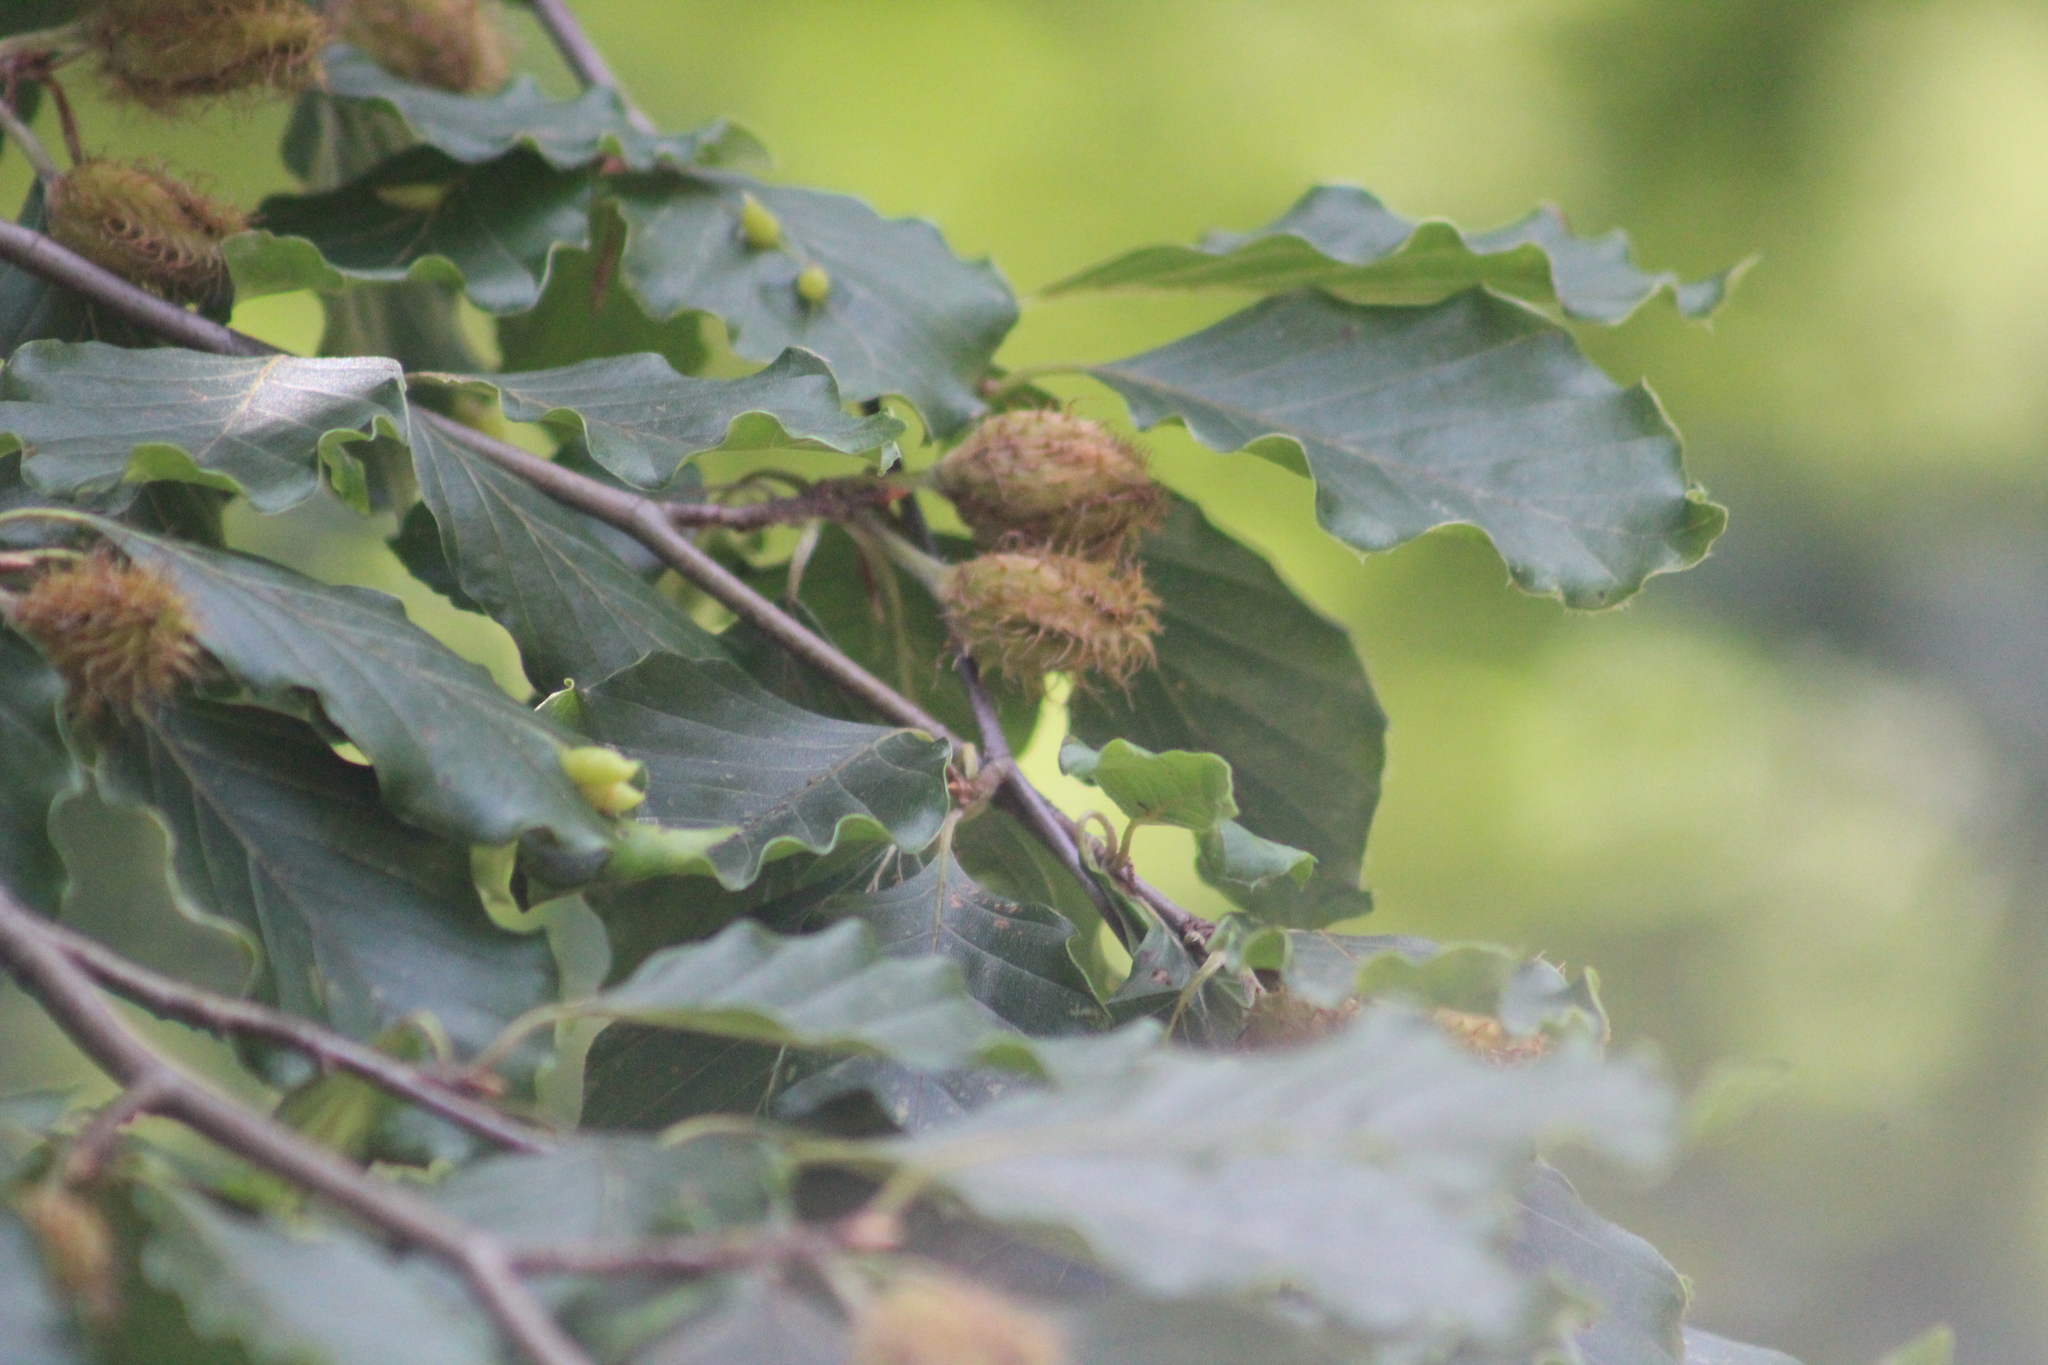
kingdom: Plantae
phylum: Tracheophyta
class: Magnoliopsida
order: Fagales
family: Fagaceae
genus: Fagus
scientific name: Fagus sylvatica
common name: Beech
